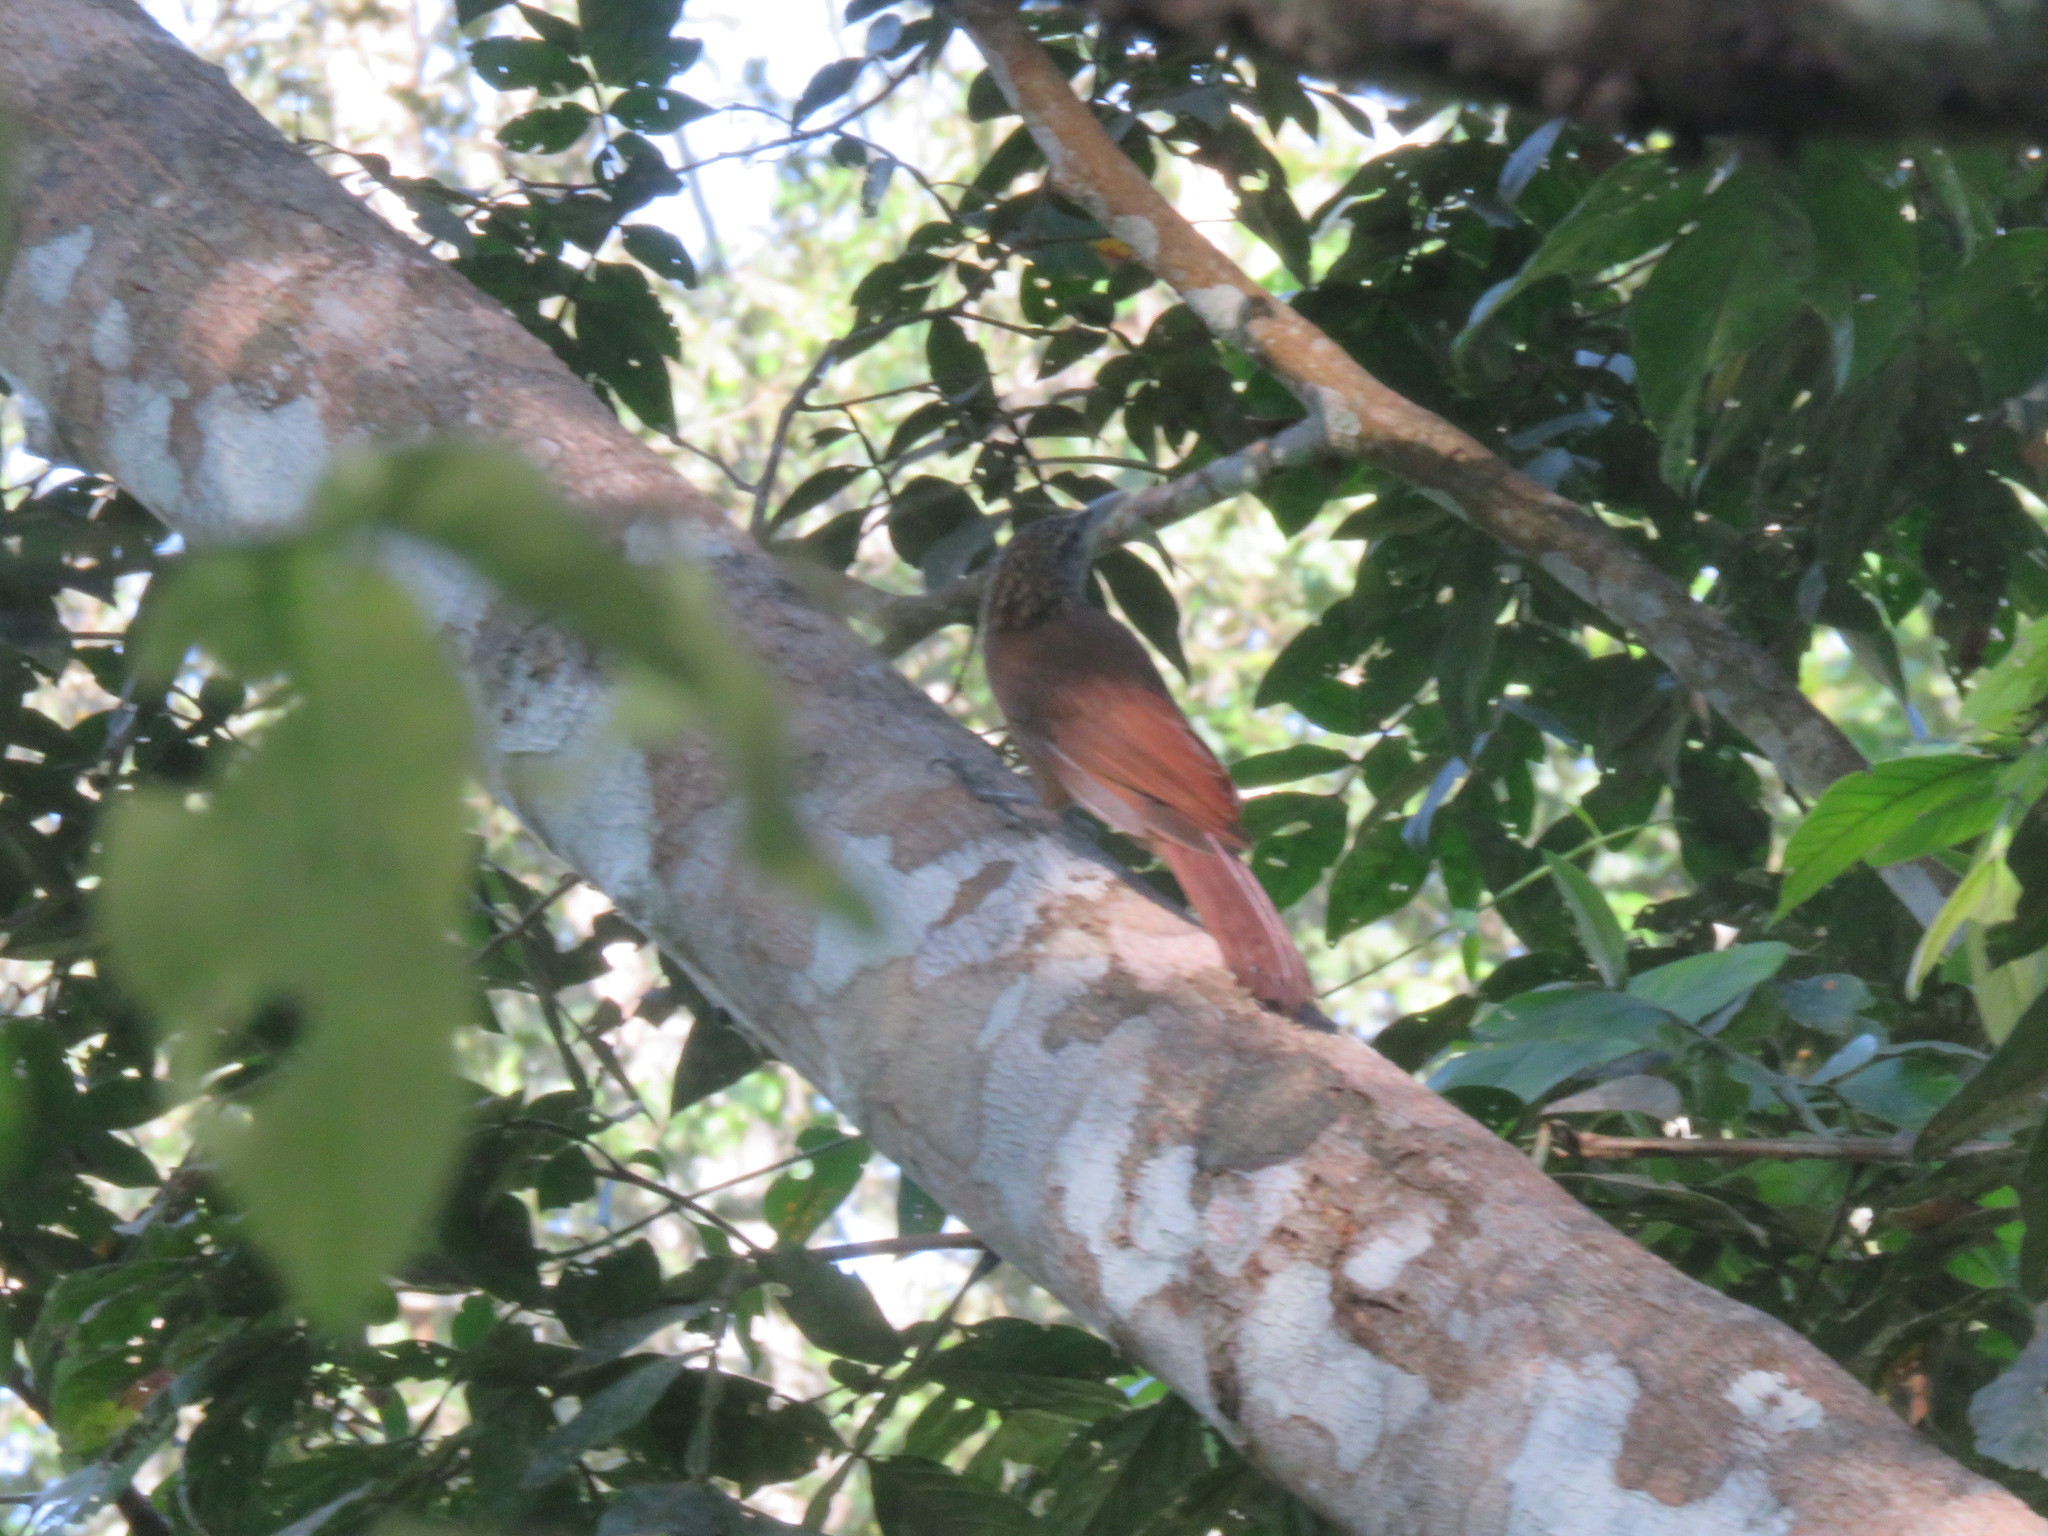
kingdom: Animalia
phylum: Chordata
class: Aves
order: Passeriformes
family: Furnariidae
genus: Xiphorhynchus
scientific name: Xiphorhynchus picus
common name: Straight-billed woodcreeper
